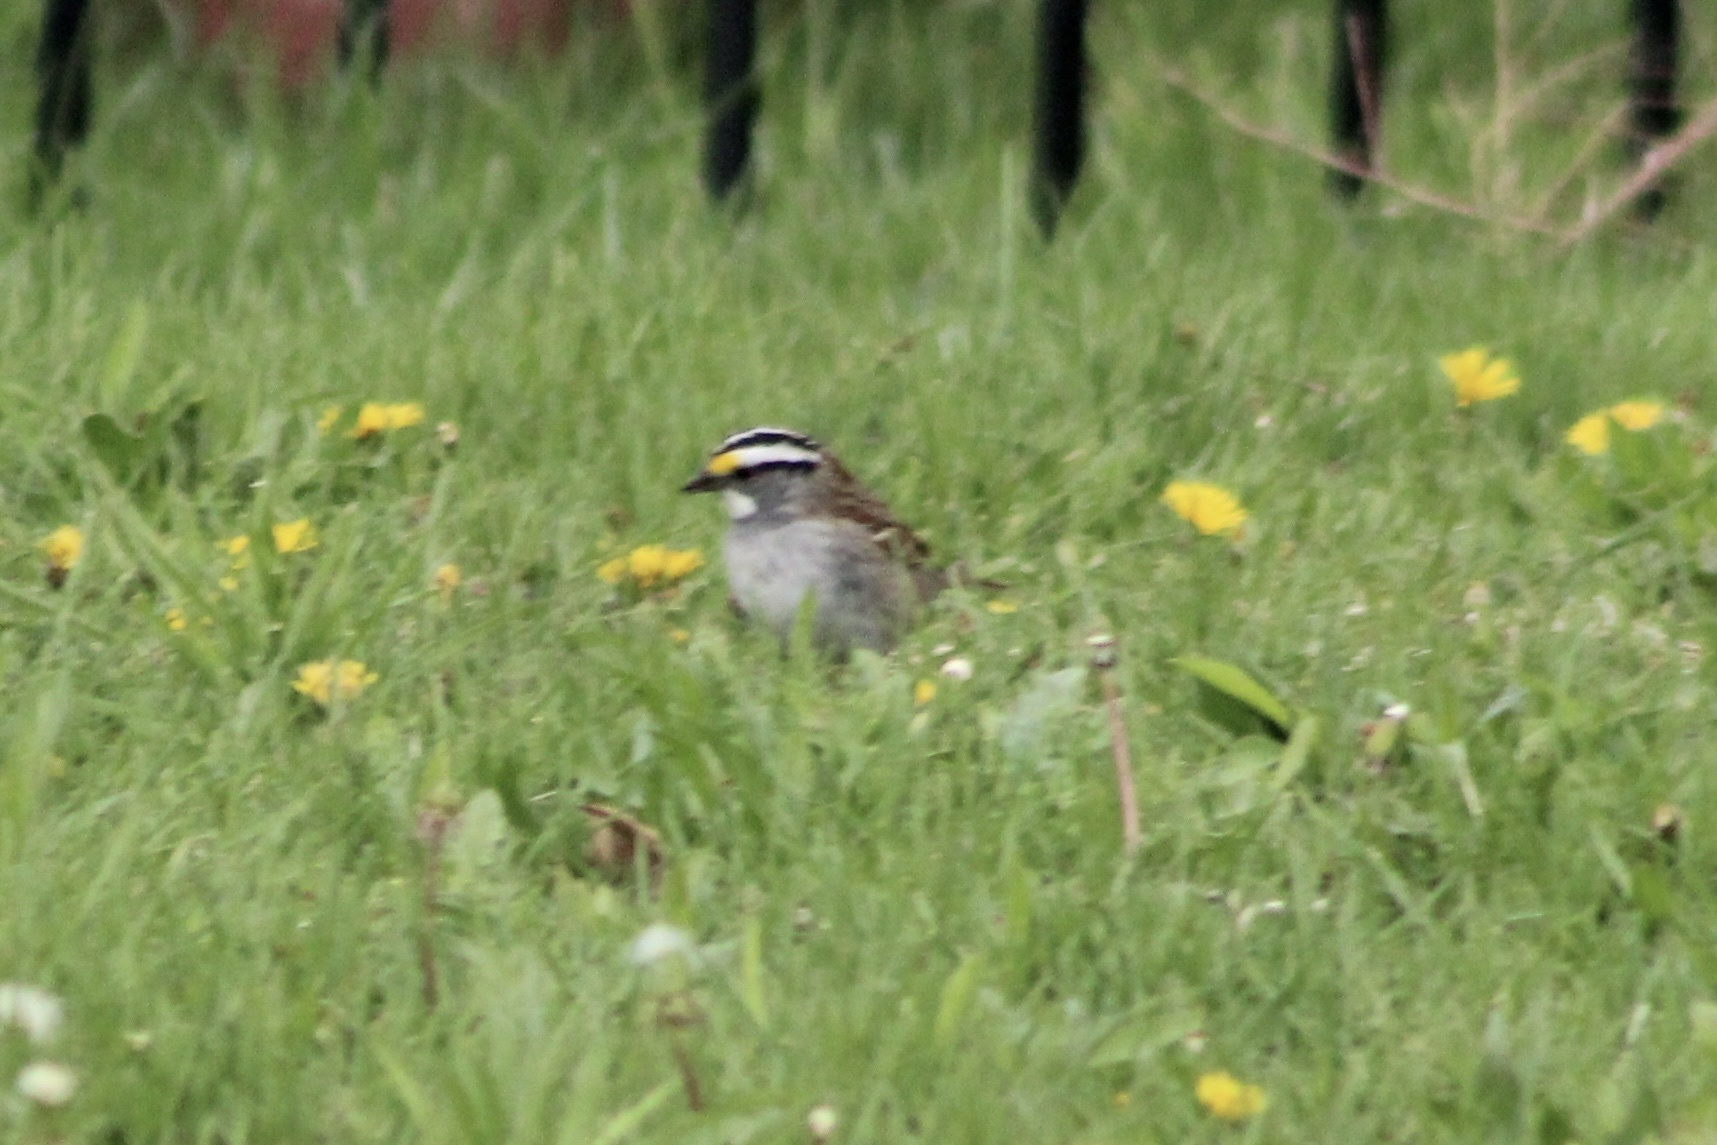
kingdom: Animalia
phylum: Chordata
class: Aves
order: Passeriformes
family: Passerellidae
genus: Zonotrichia
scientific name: Zonotrichia albicollis
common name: White-throated sparrow
